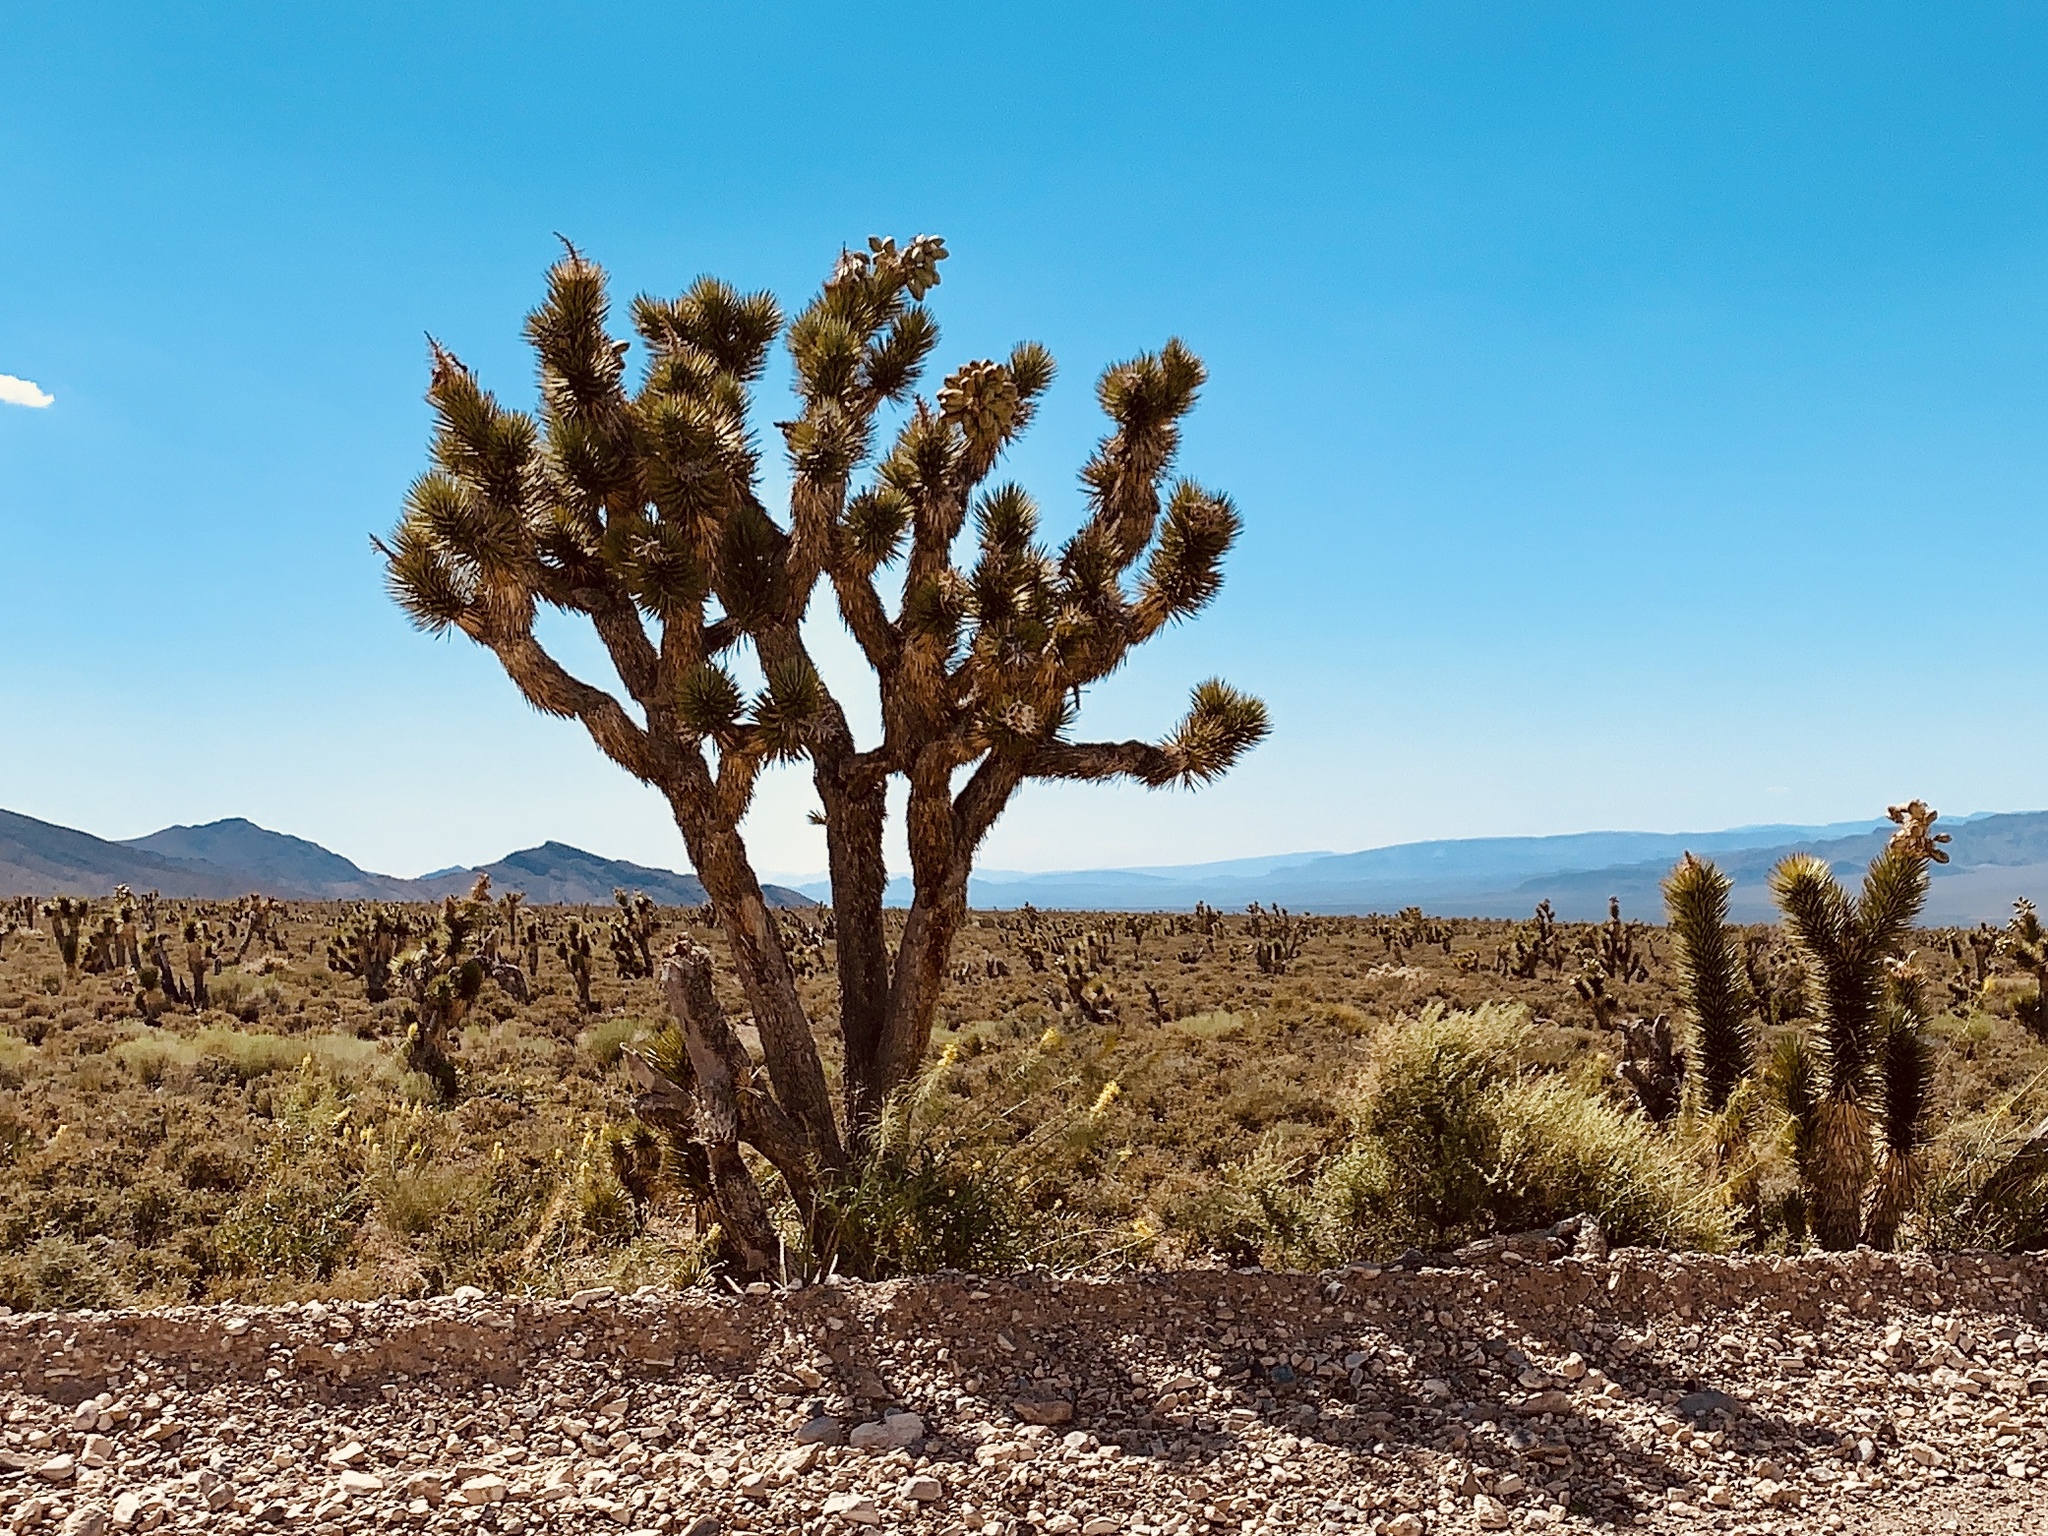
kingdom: Plantae
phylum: Tracheophyta
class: Liliopsida
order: Asparagales
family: Asparagaceae
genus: Yucca
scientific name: Yucca brevifolia
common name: Joshua tree
